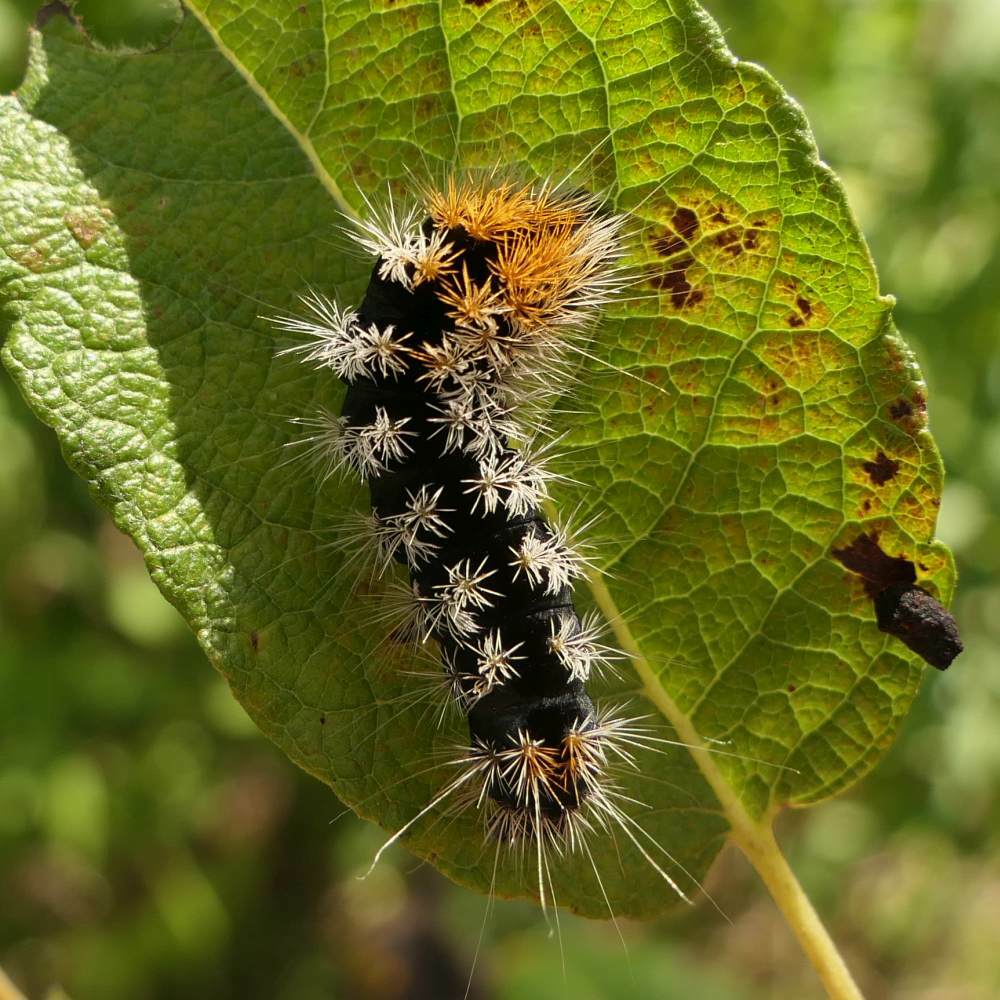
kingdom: Animalia
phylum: Arthropoda
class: Insecta
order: Lepidoptera
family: Noctuidae
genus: Acronicta
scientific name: Acronicta impressa
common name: Impressed dagger
